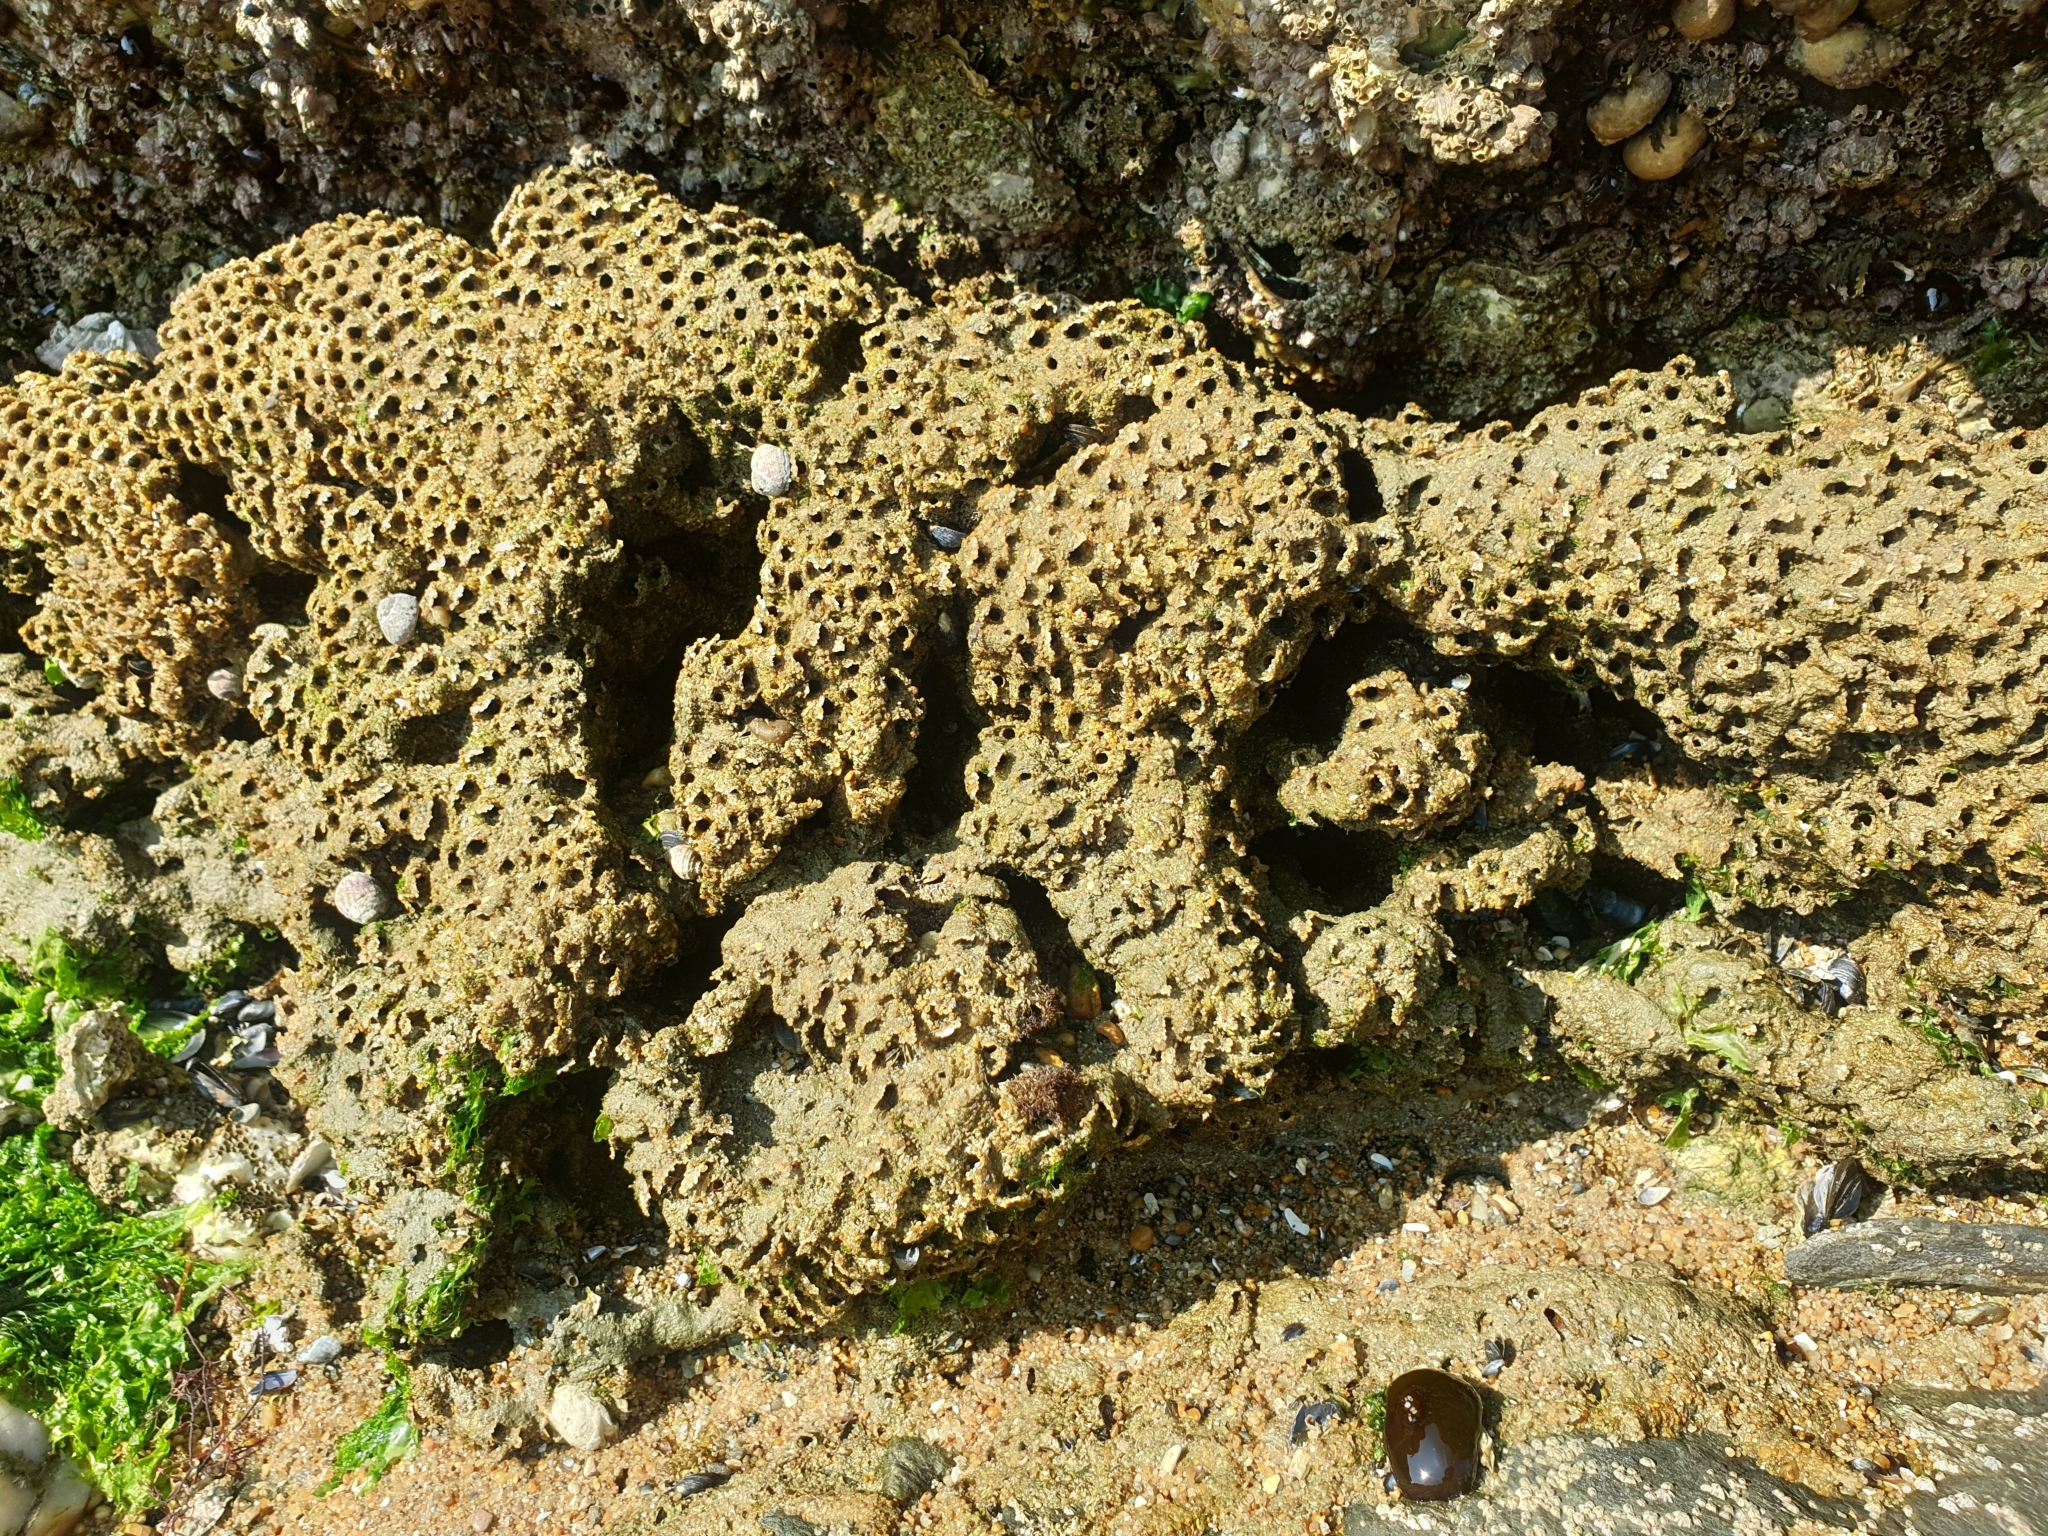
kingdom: Animalia
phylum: Annelida
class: Polychaeta
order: Sabellida
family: Sabellariidae
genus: Sabellaria
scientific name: Sabellaria alveolata
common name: Honeycomb worm
